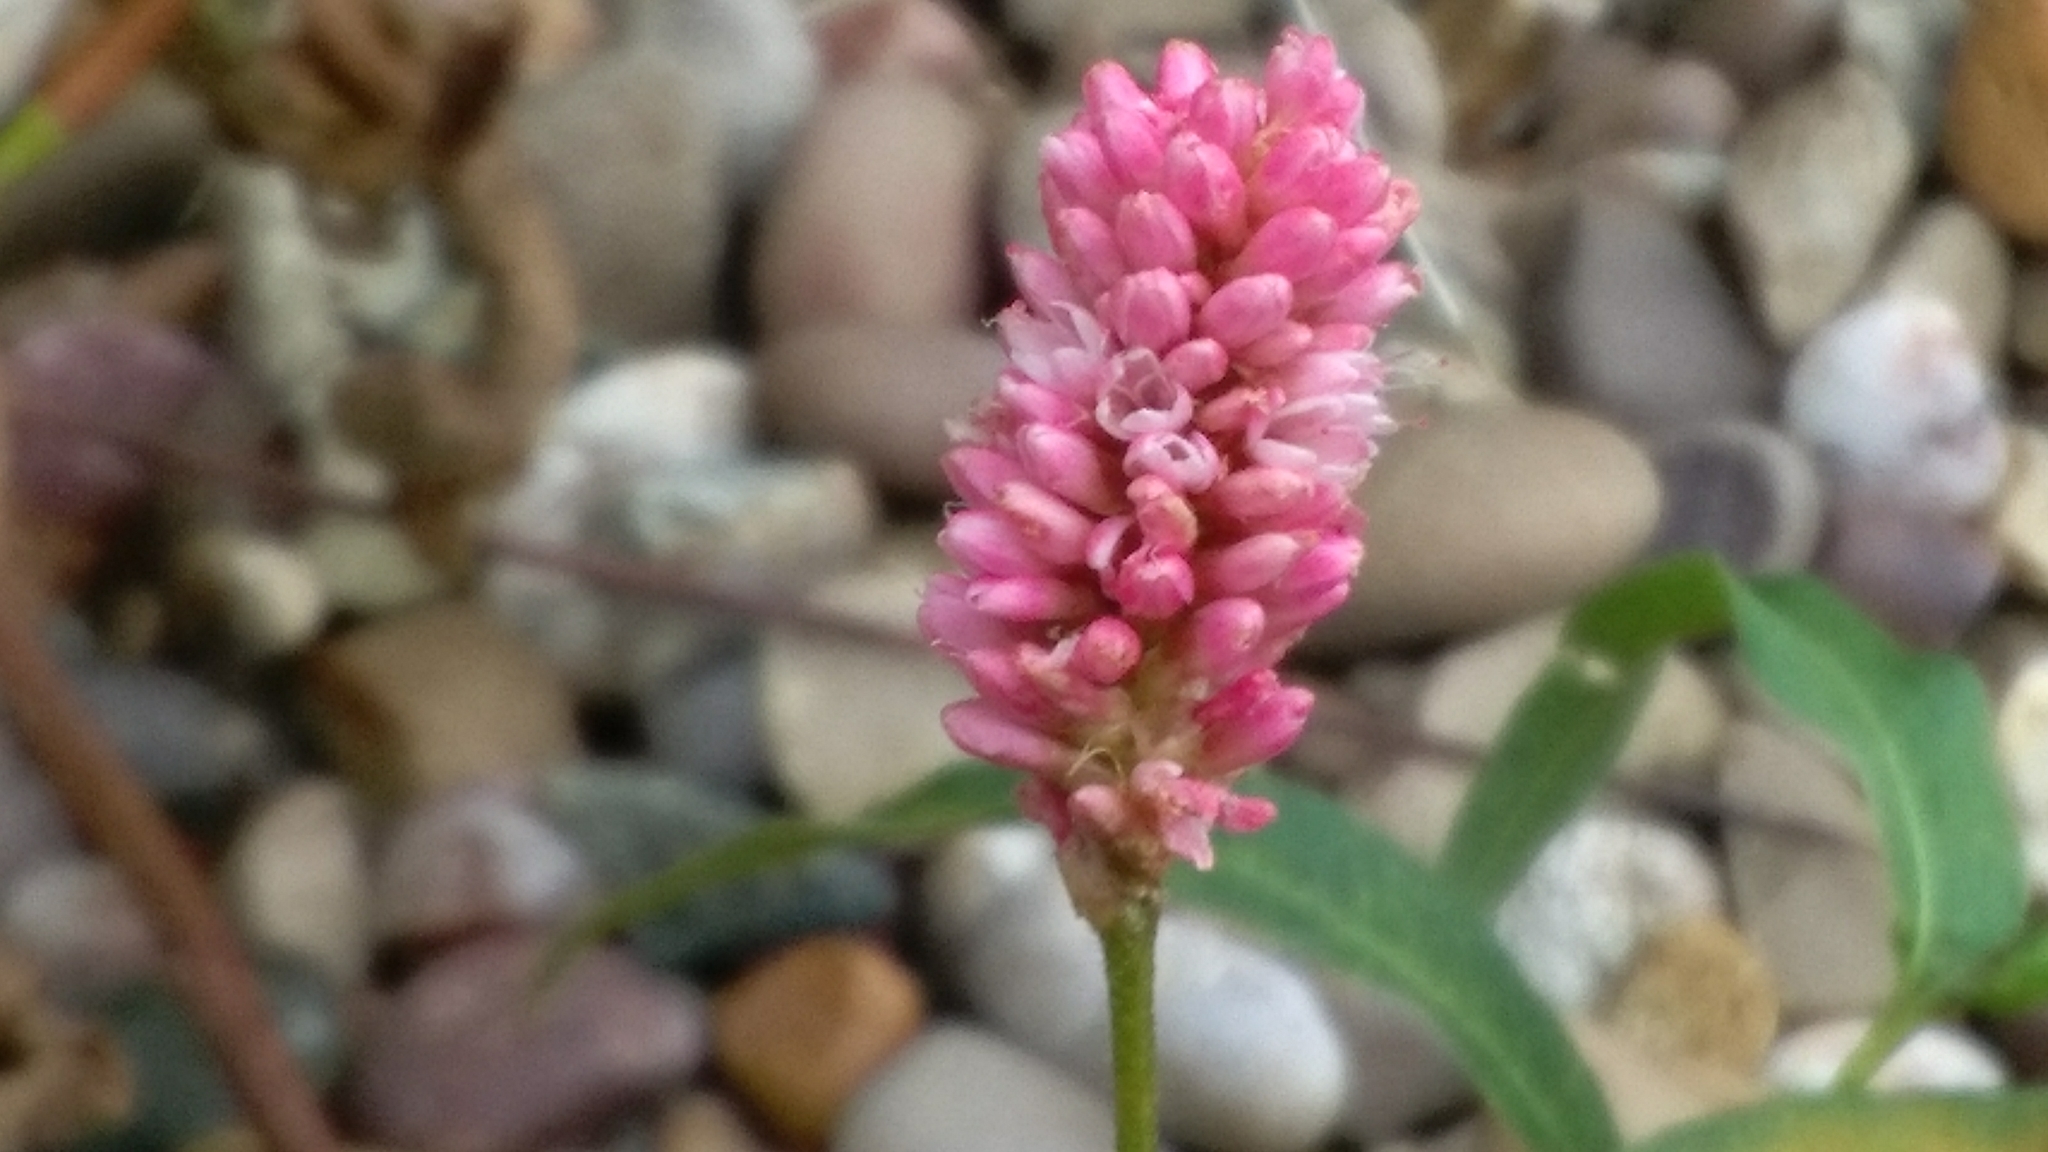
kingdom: Plantae
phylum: Tracheophyta
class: Magnoliopsida
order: Caryophyllales
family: Polygonaceae
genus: Persicaria
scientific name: Persicaria amphibia
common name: Amphibious bistort
